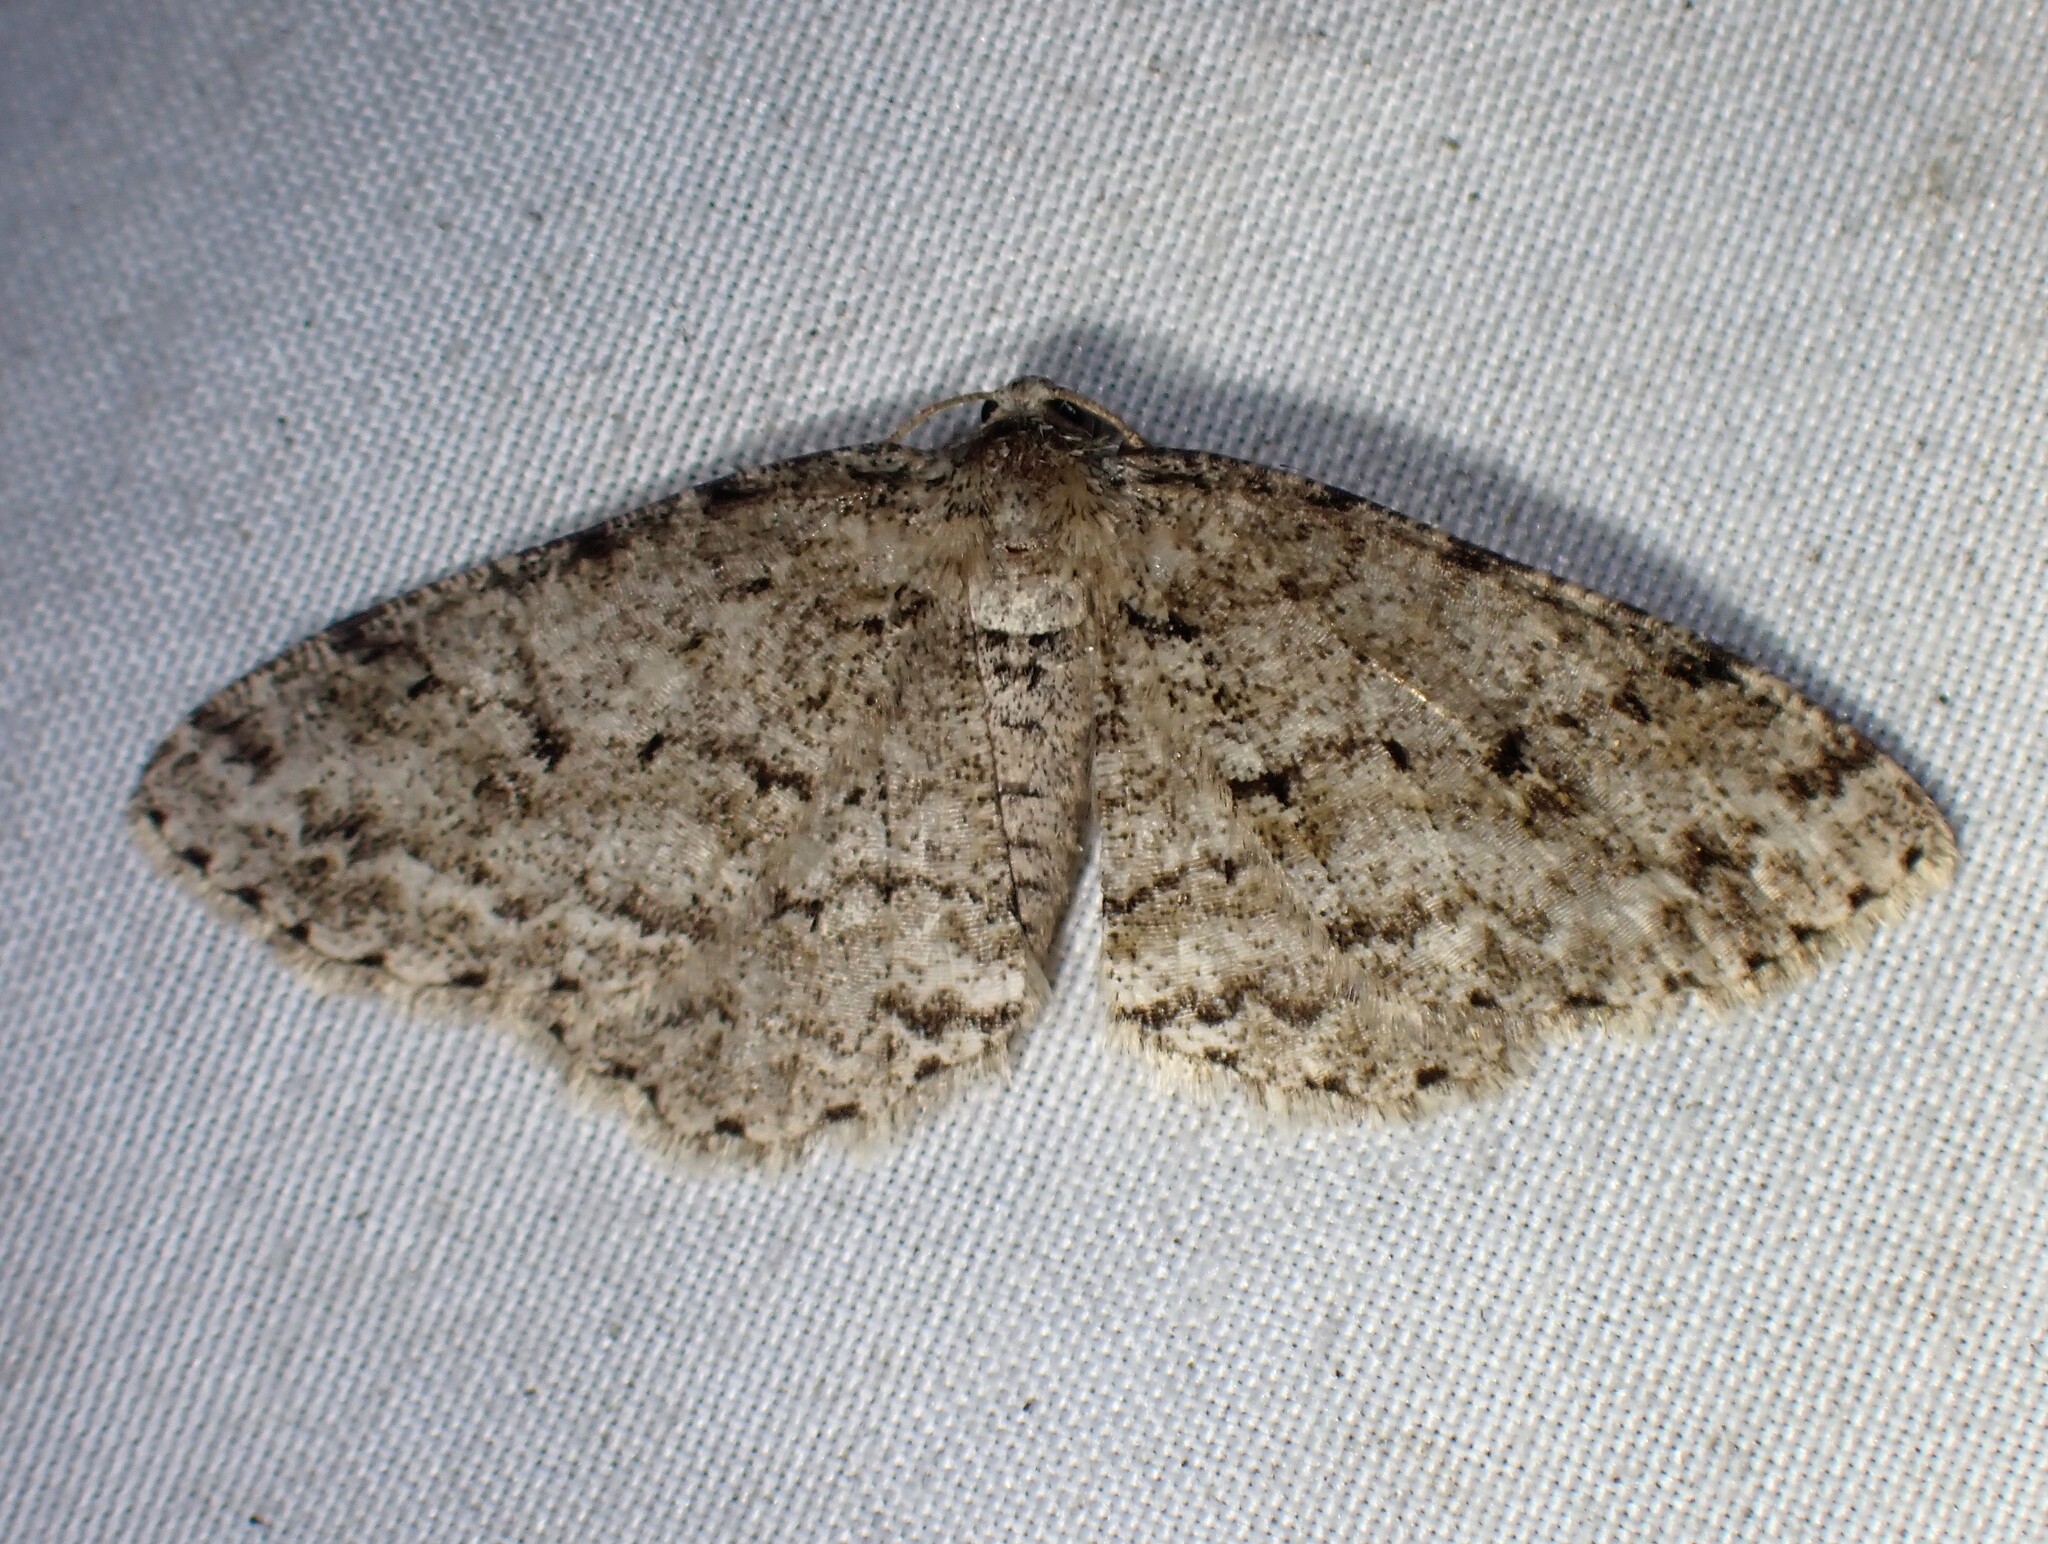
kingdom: Animalia
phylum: Arthropoda
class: Insecta
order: Lepidoptera
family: Geometridae
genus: Ectropis
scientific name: Ectropis crepuscularia
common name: Engrailed
